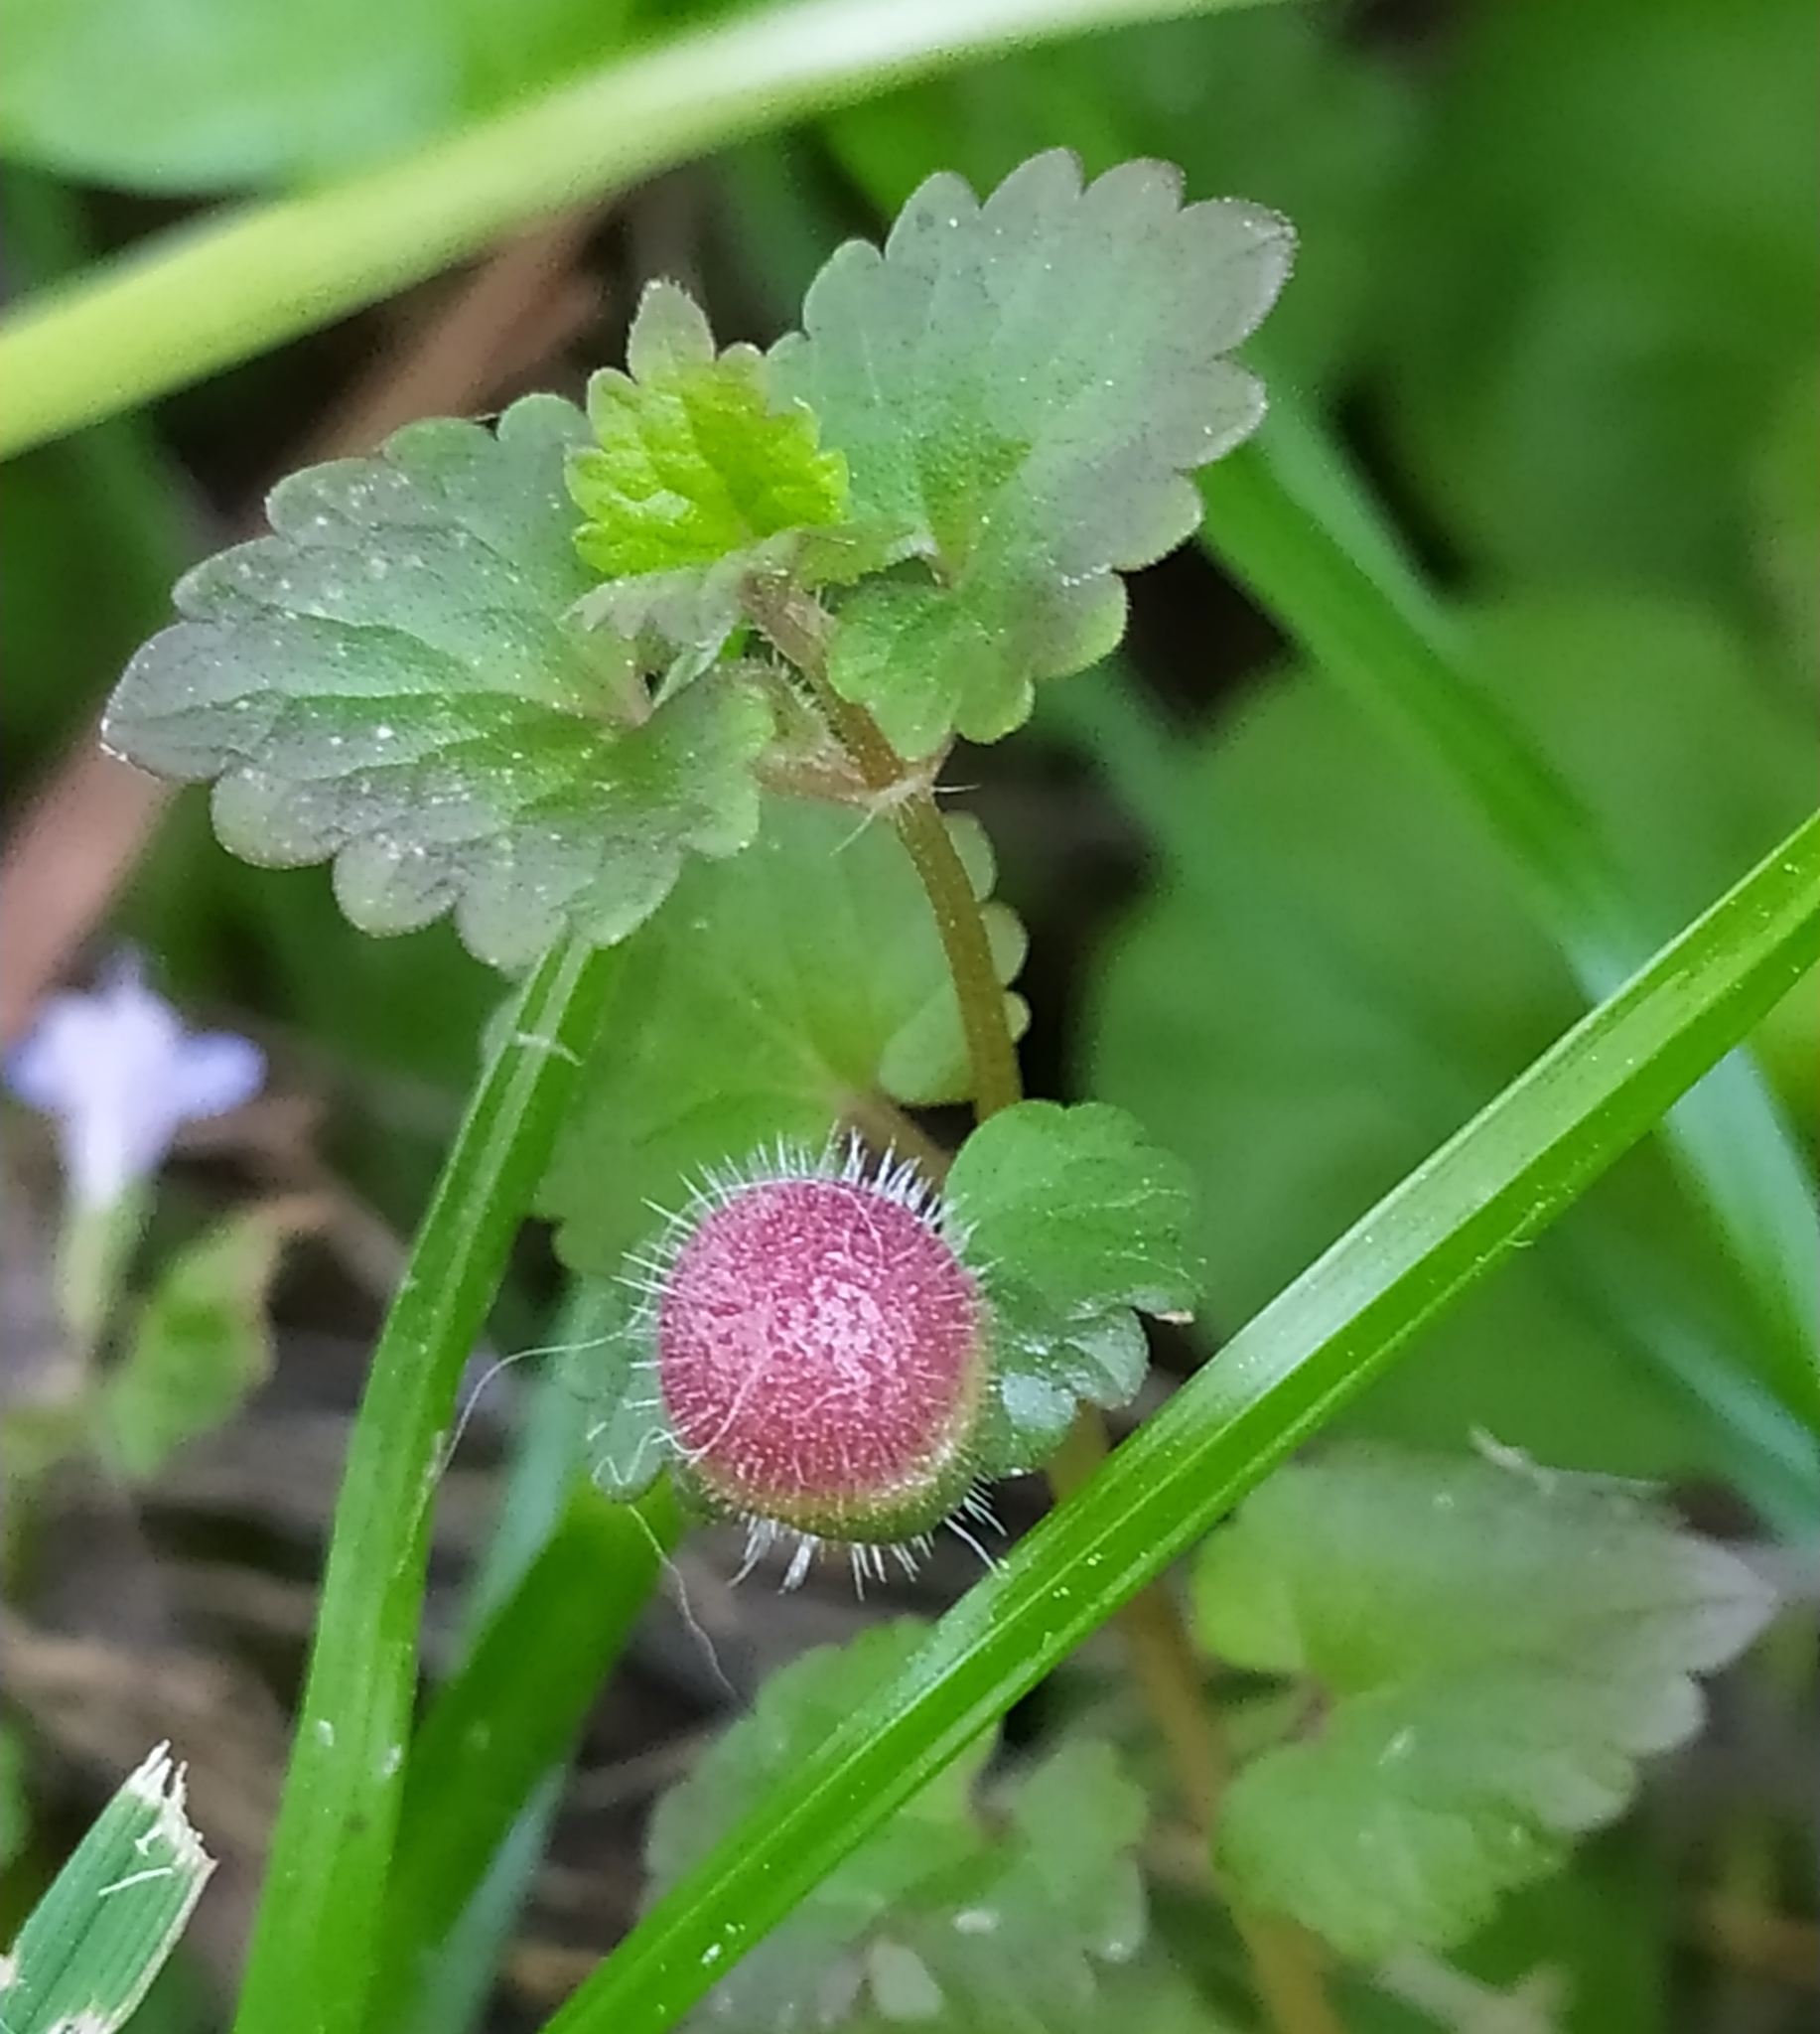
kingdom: Animalia
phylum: Arthropoda
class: Insecta
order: Hymenoptera
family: Cynipidae
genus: Liposthenes
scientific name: Liposthenes glechomae
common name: Gall wasp
